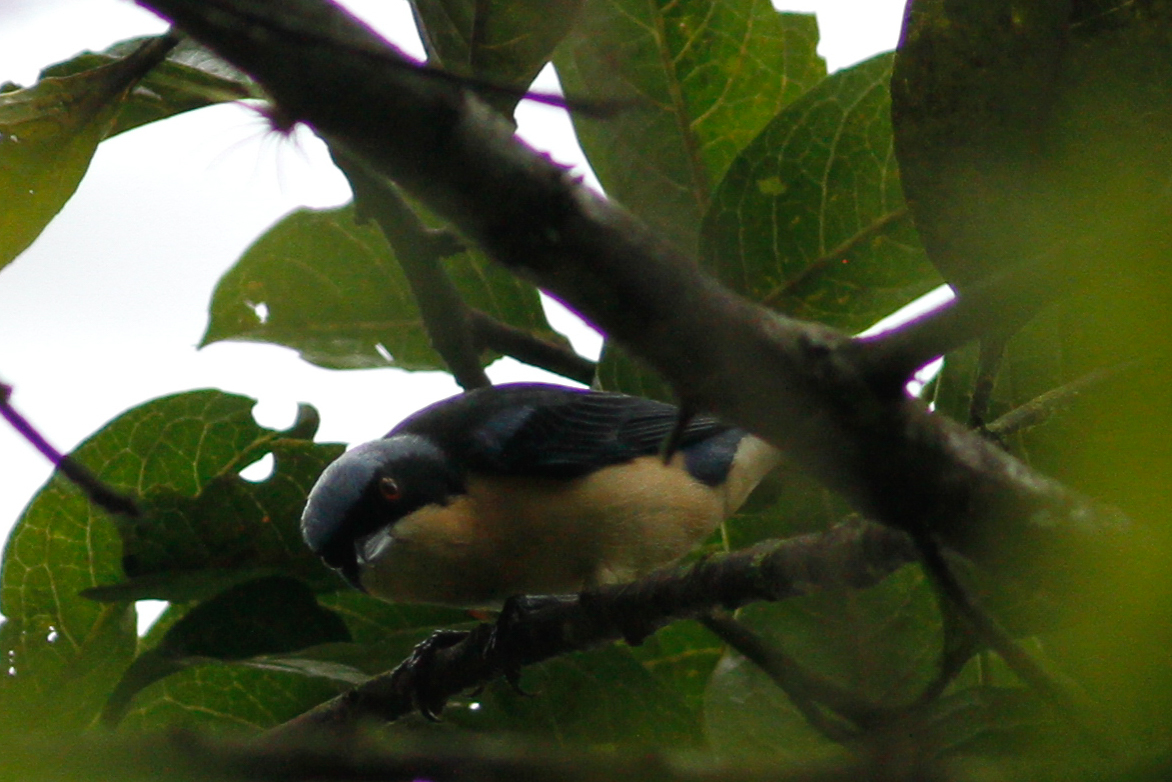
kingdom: Animalia
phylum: Chordata
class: Aves
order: Passeriformes
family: Thraupidae
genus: Pipraeidea
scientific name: Pipraeidea melanonota
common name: Fawn-breasted tanager
